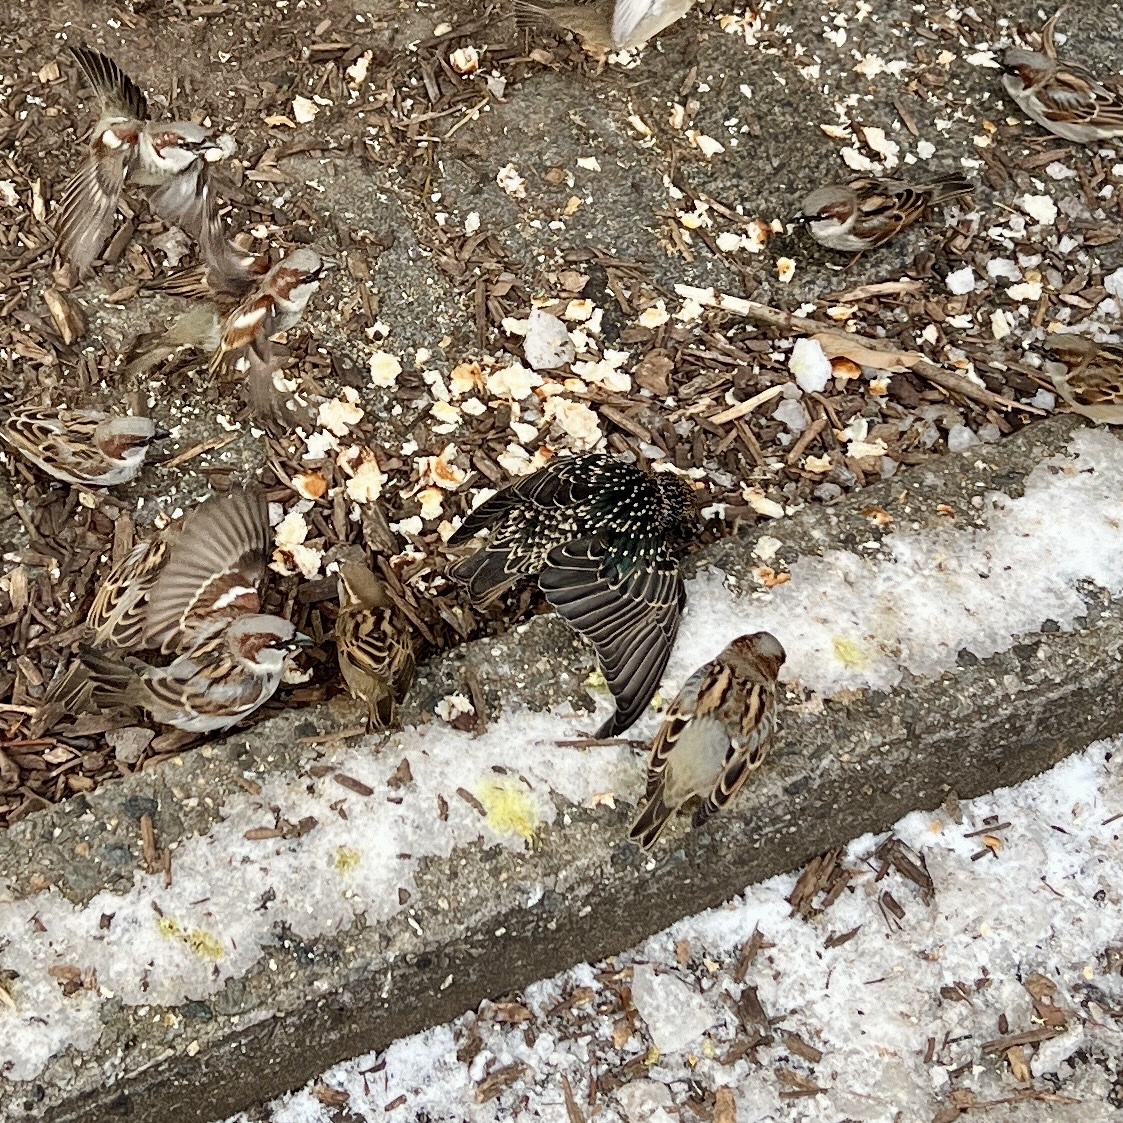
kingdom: Animalia
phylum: Chordata
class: Aves
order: Passeriformes
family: Sturnidae
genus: Sturnus
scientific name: Sturnus vulgaris
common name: Common starling
